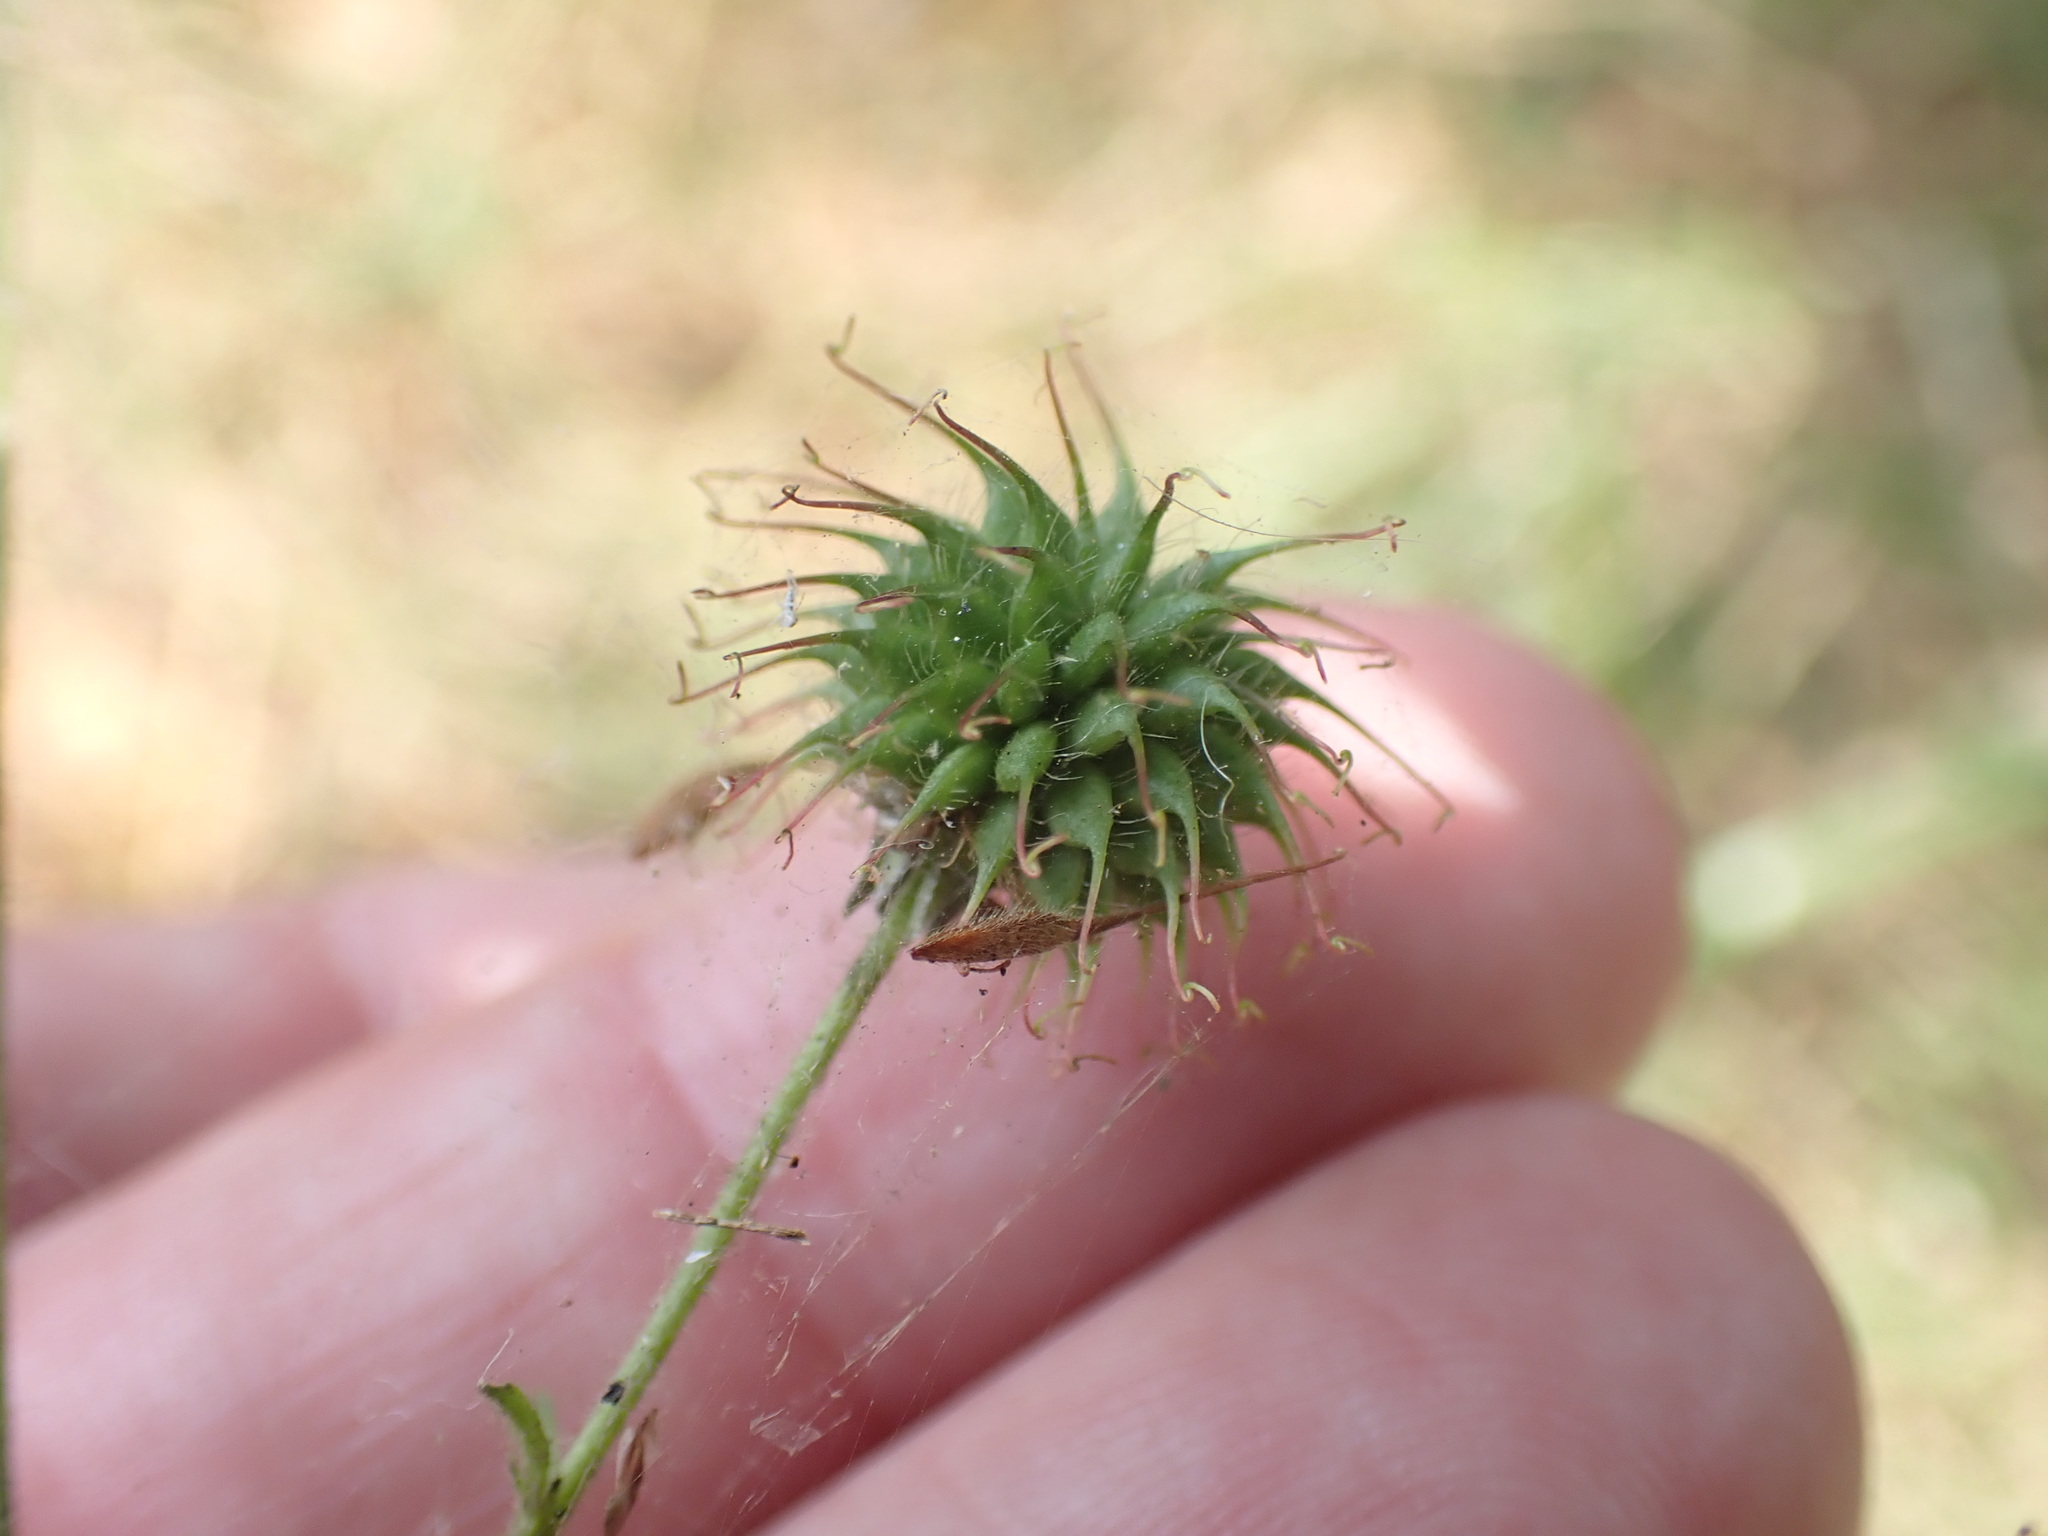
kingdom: Plantae
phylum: Tracheophyta
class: Magnoliopsida
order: Rosales
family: Rosaceae
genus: Geum
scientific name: Geum urbanum
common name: Wood avens
